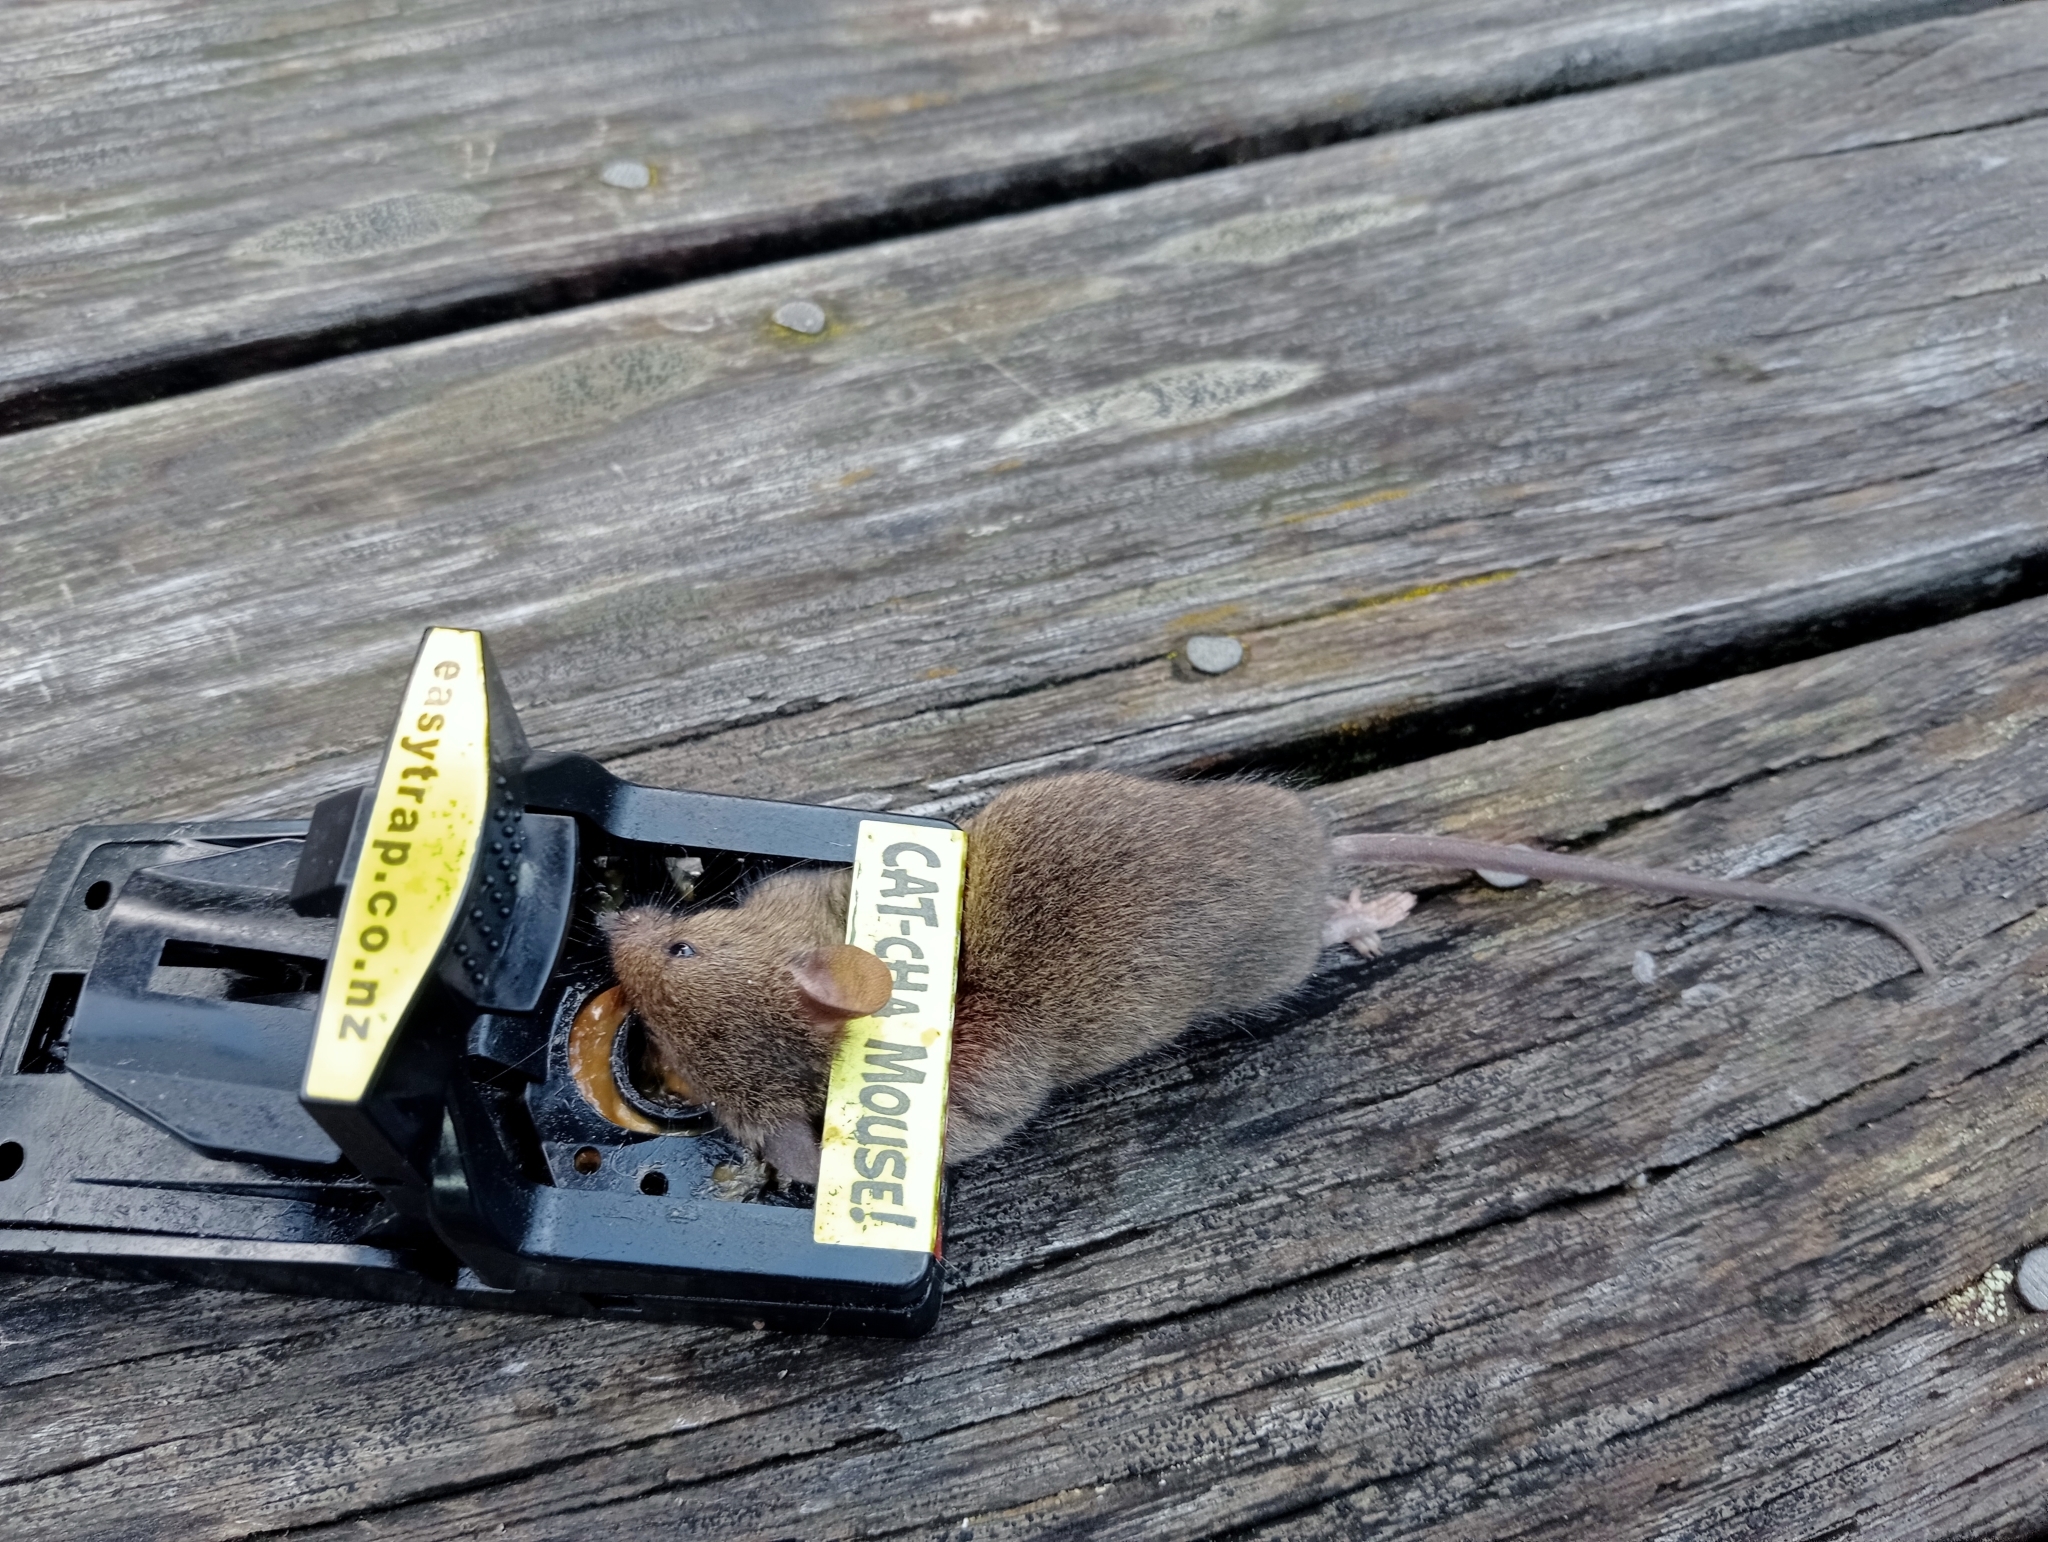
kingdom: Animalia
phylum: Chordata
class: Mammalia
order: Rodentia
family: Muridae
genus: Mus
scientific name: Mus musculus
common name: House mouse
